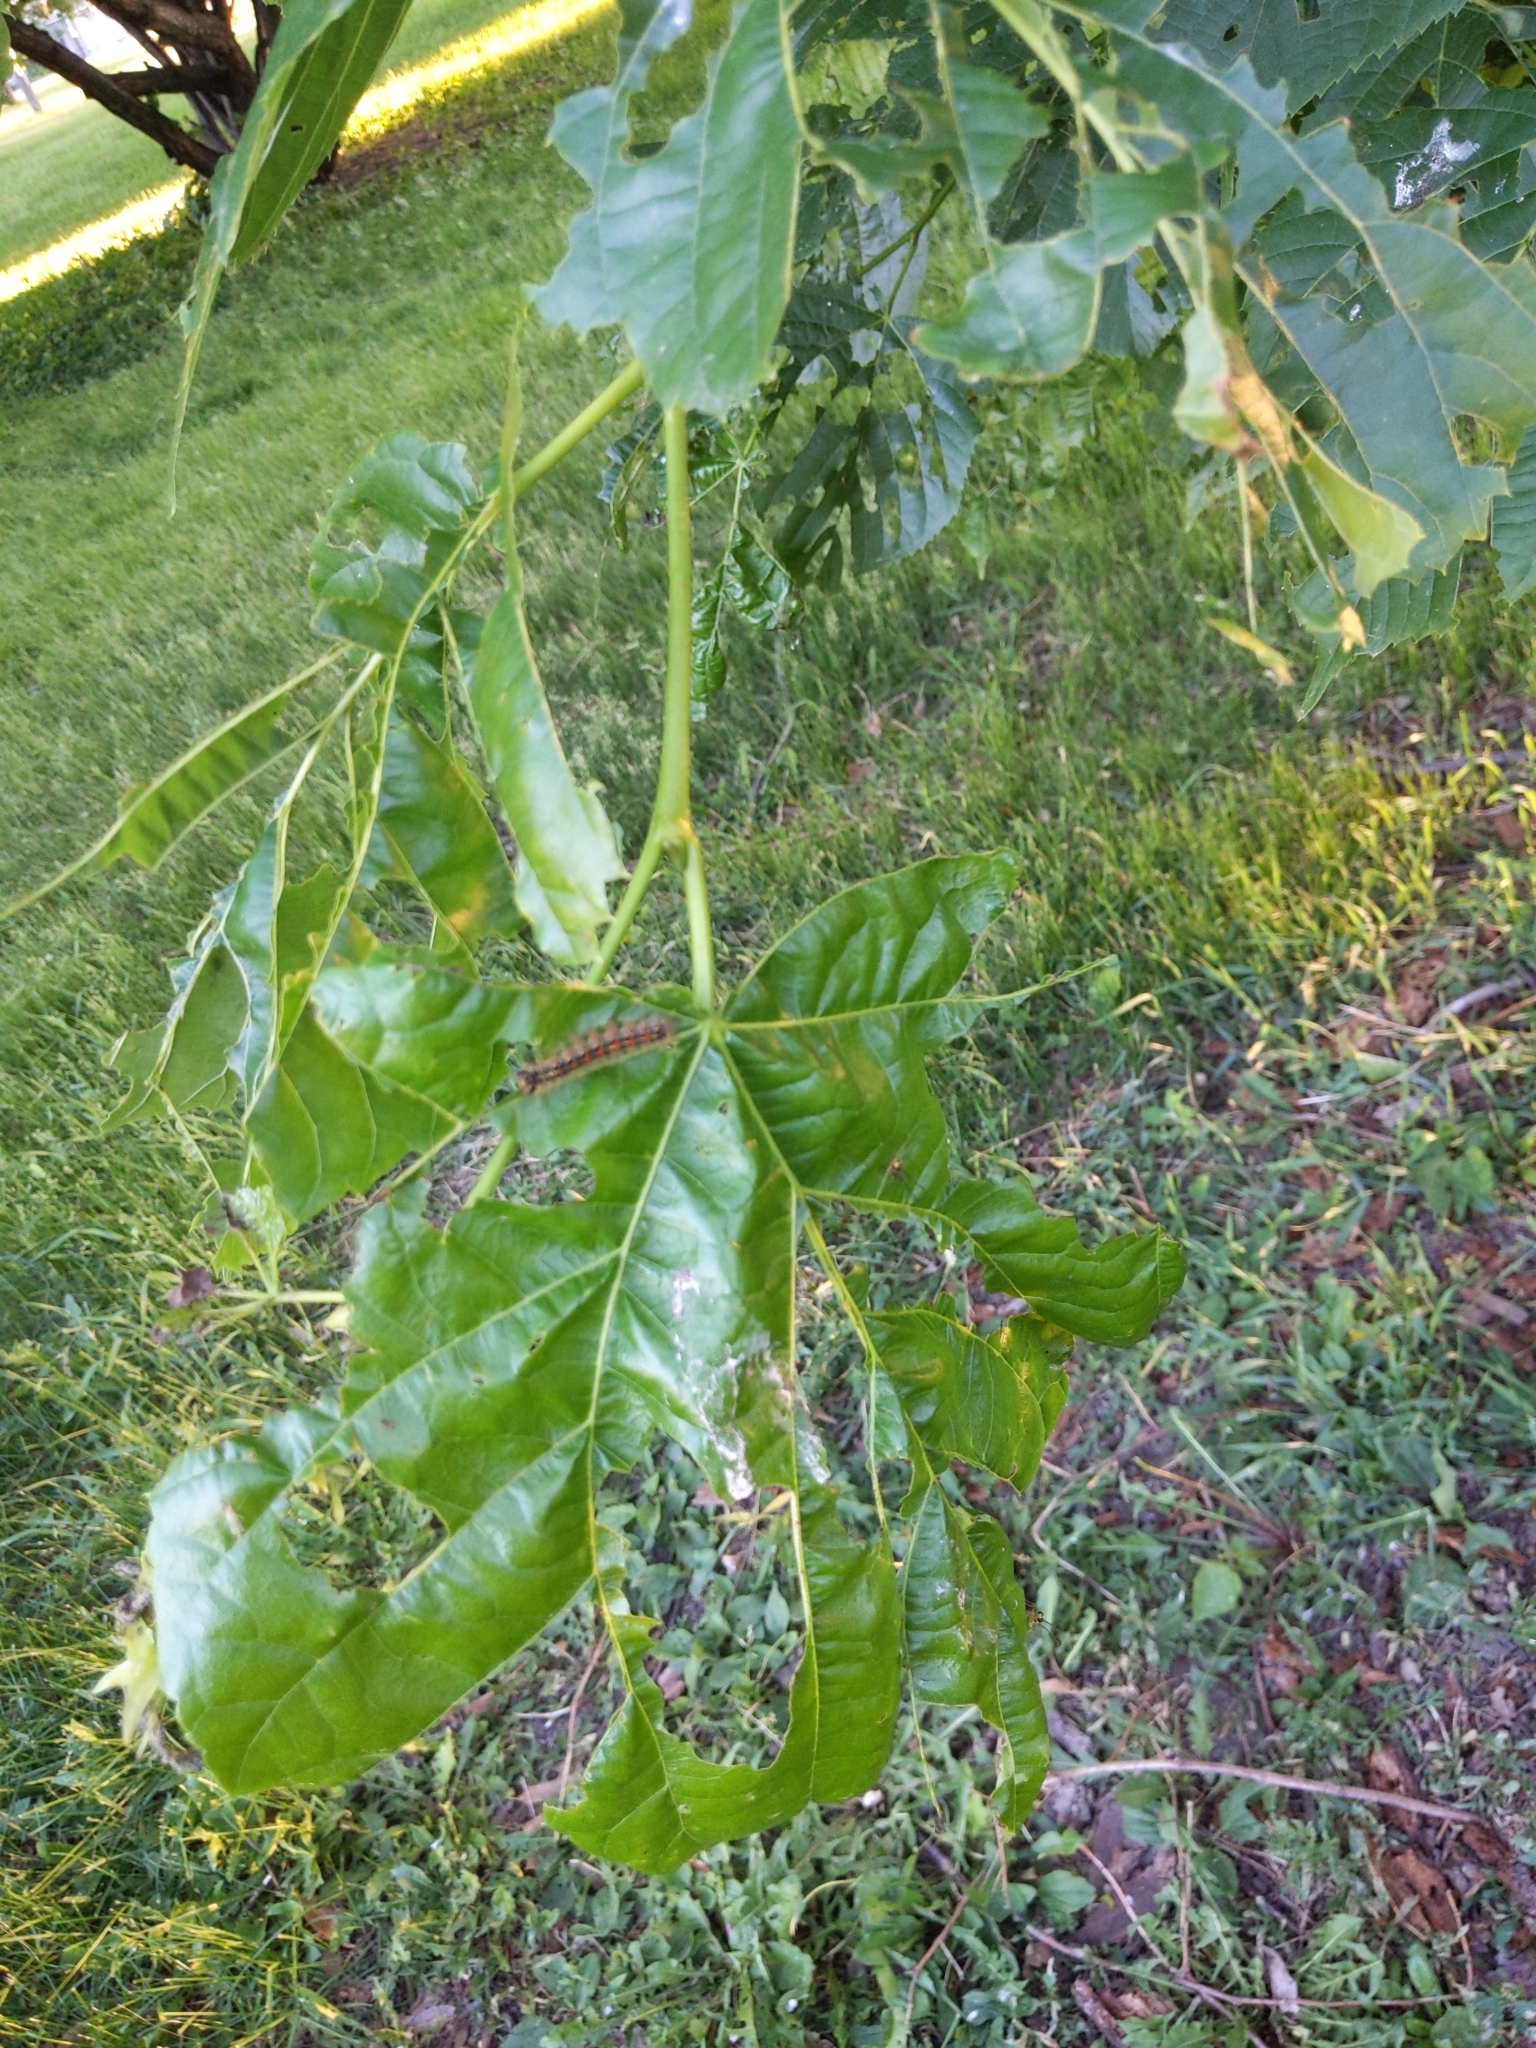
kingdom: Animalia
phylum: Arthropoda
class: Insecta
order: Lepidoptera
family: Erebidae
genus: Lymantria
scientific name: Lymantria dispar
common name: Gypsy moth
